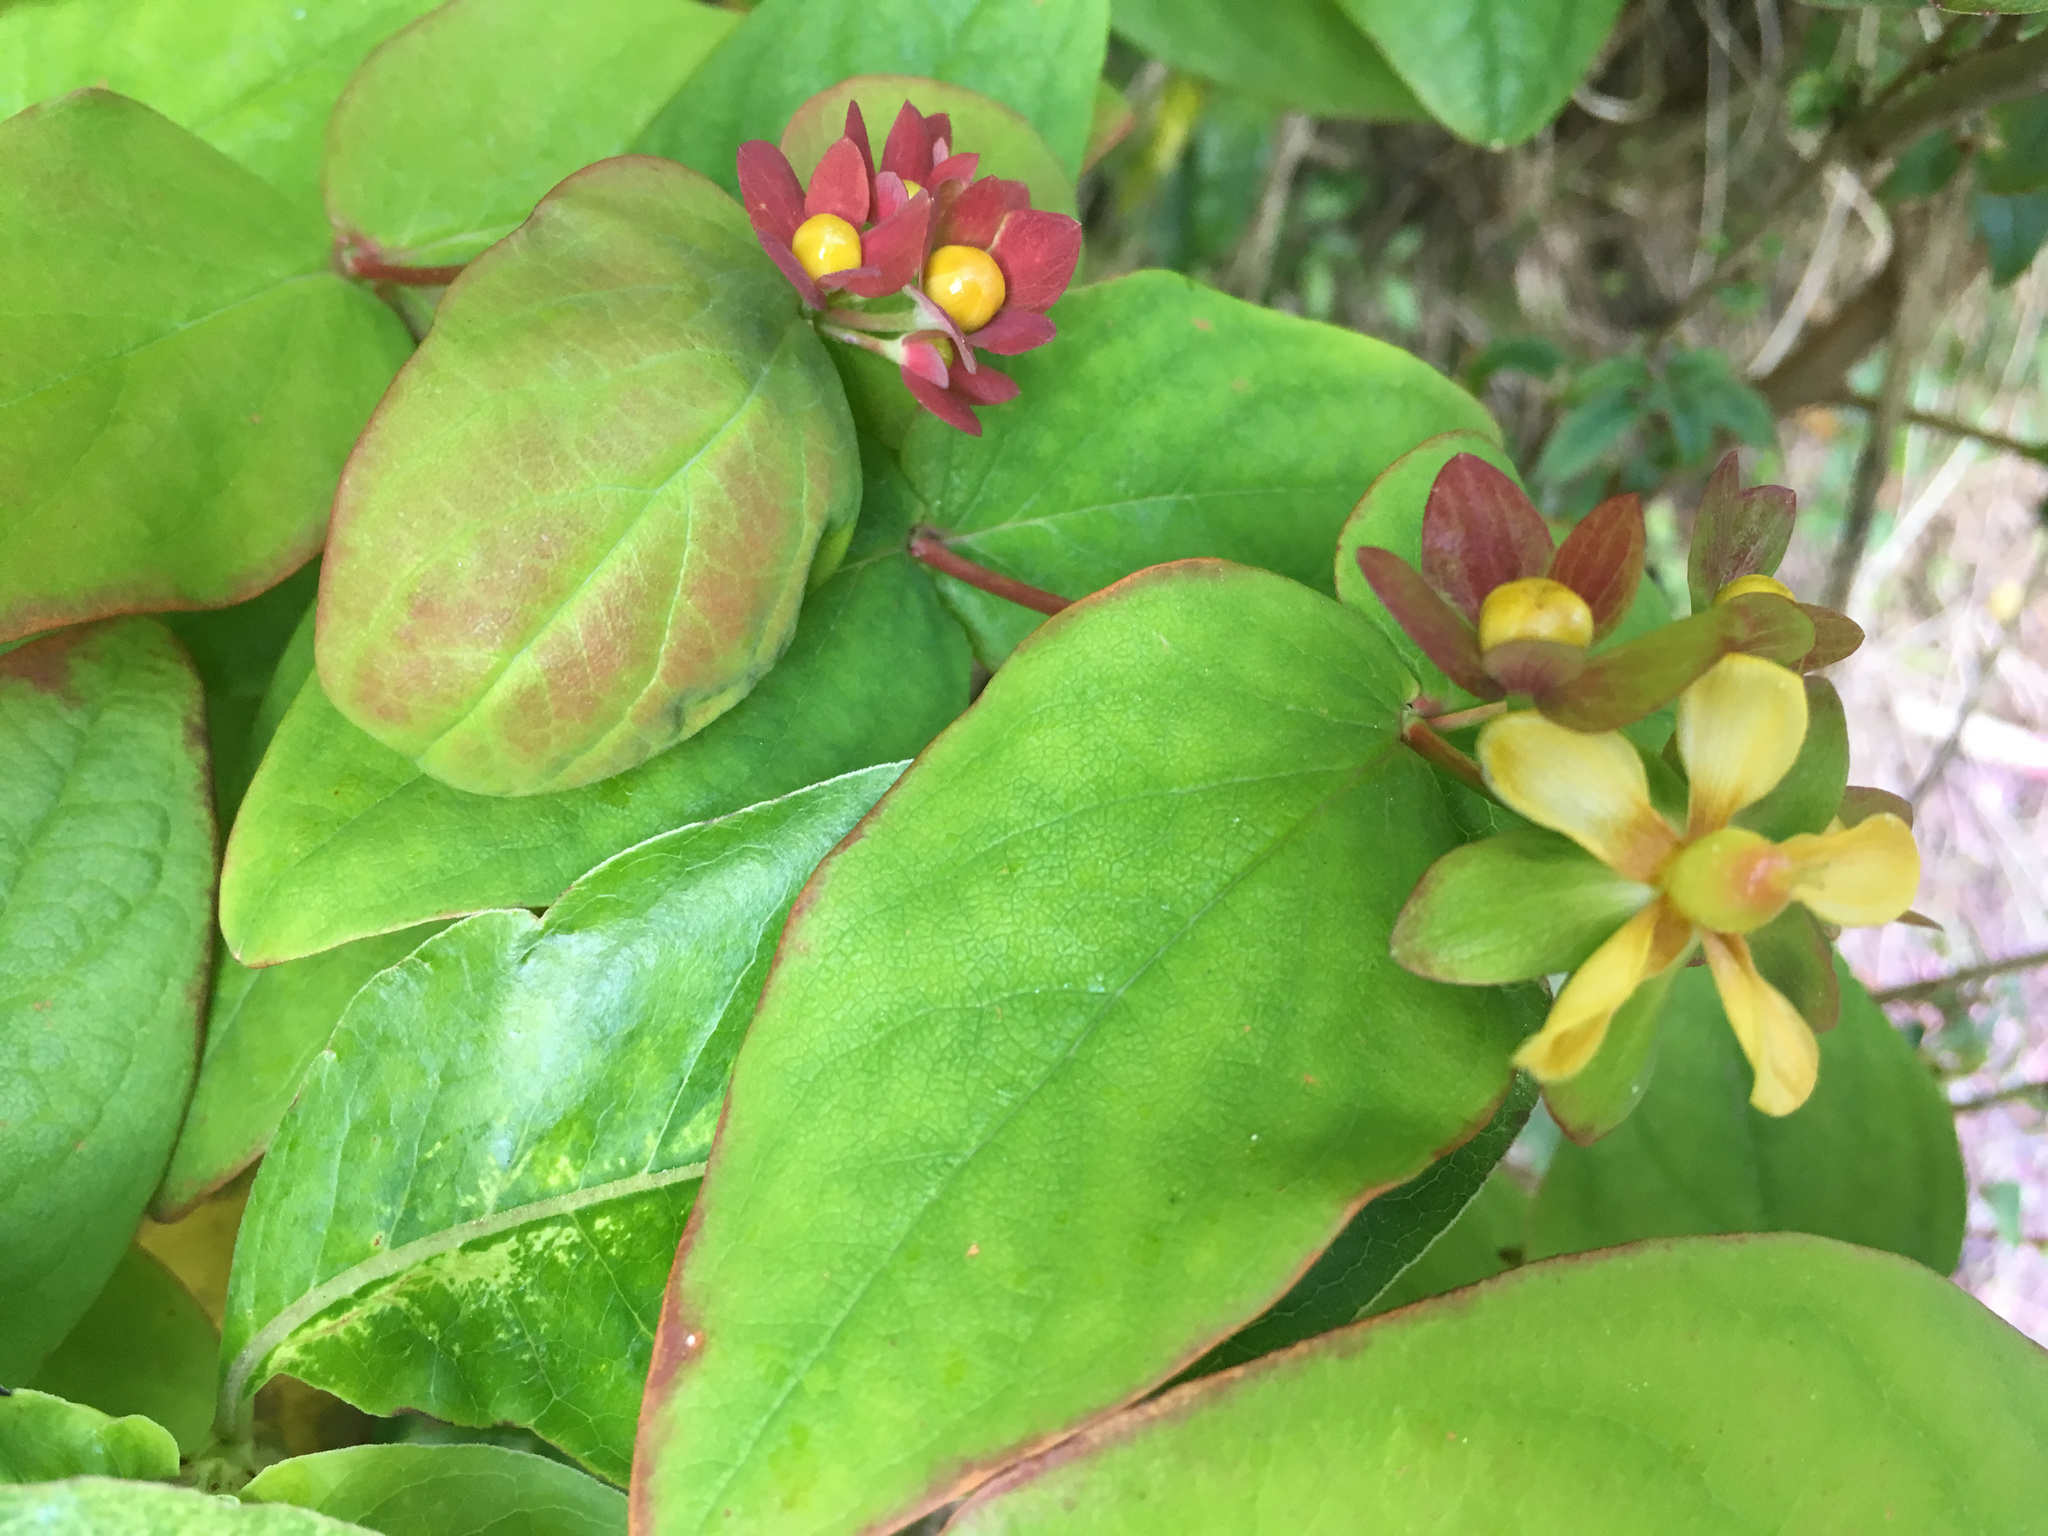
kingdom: Plantae
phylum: Tracheophyta
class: Magnoliopsida
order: Malpighiales
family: Hypericaceae
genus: Hypericum
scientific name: Hypericum androsaemum
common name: Sweet-amber
